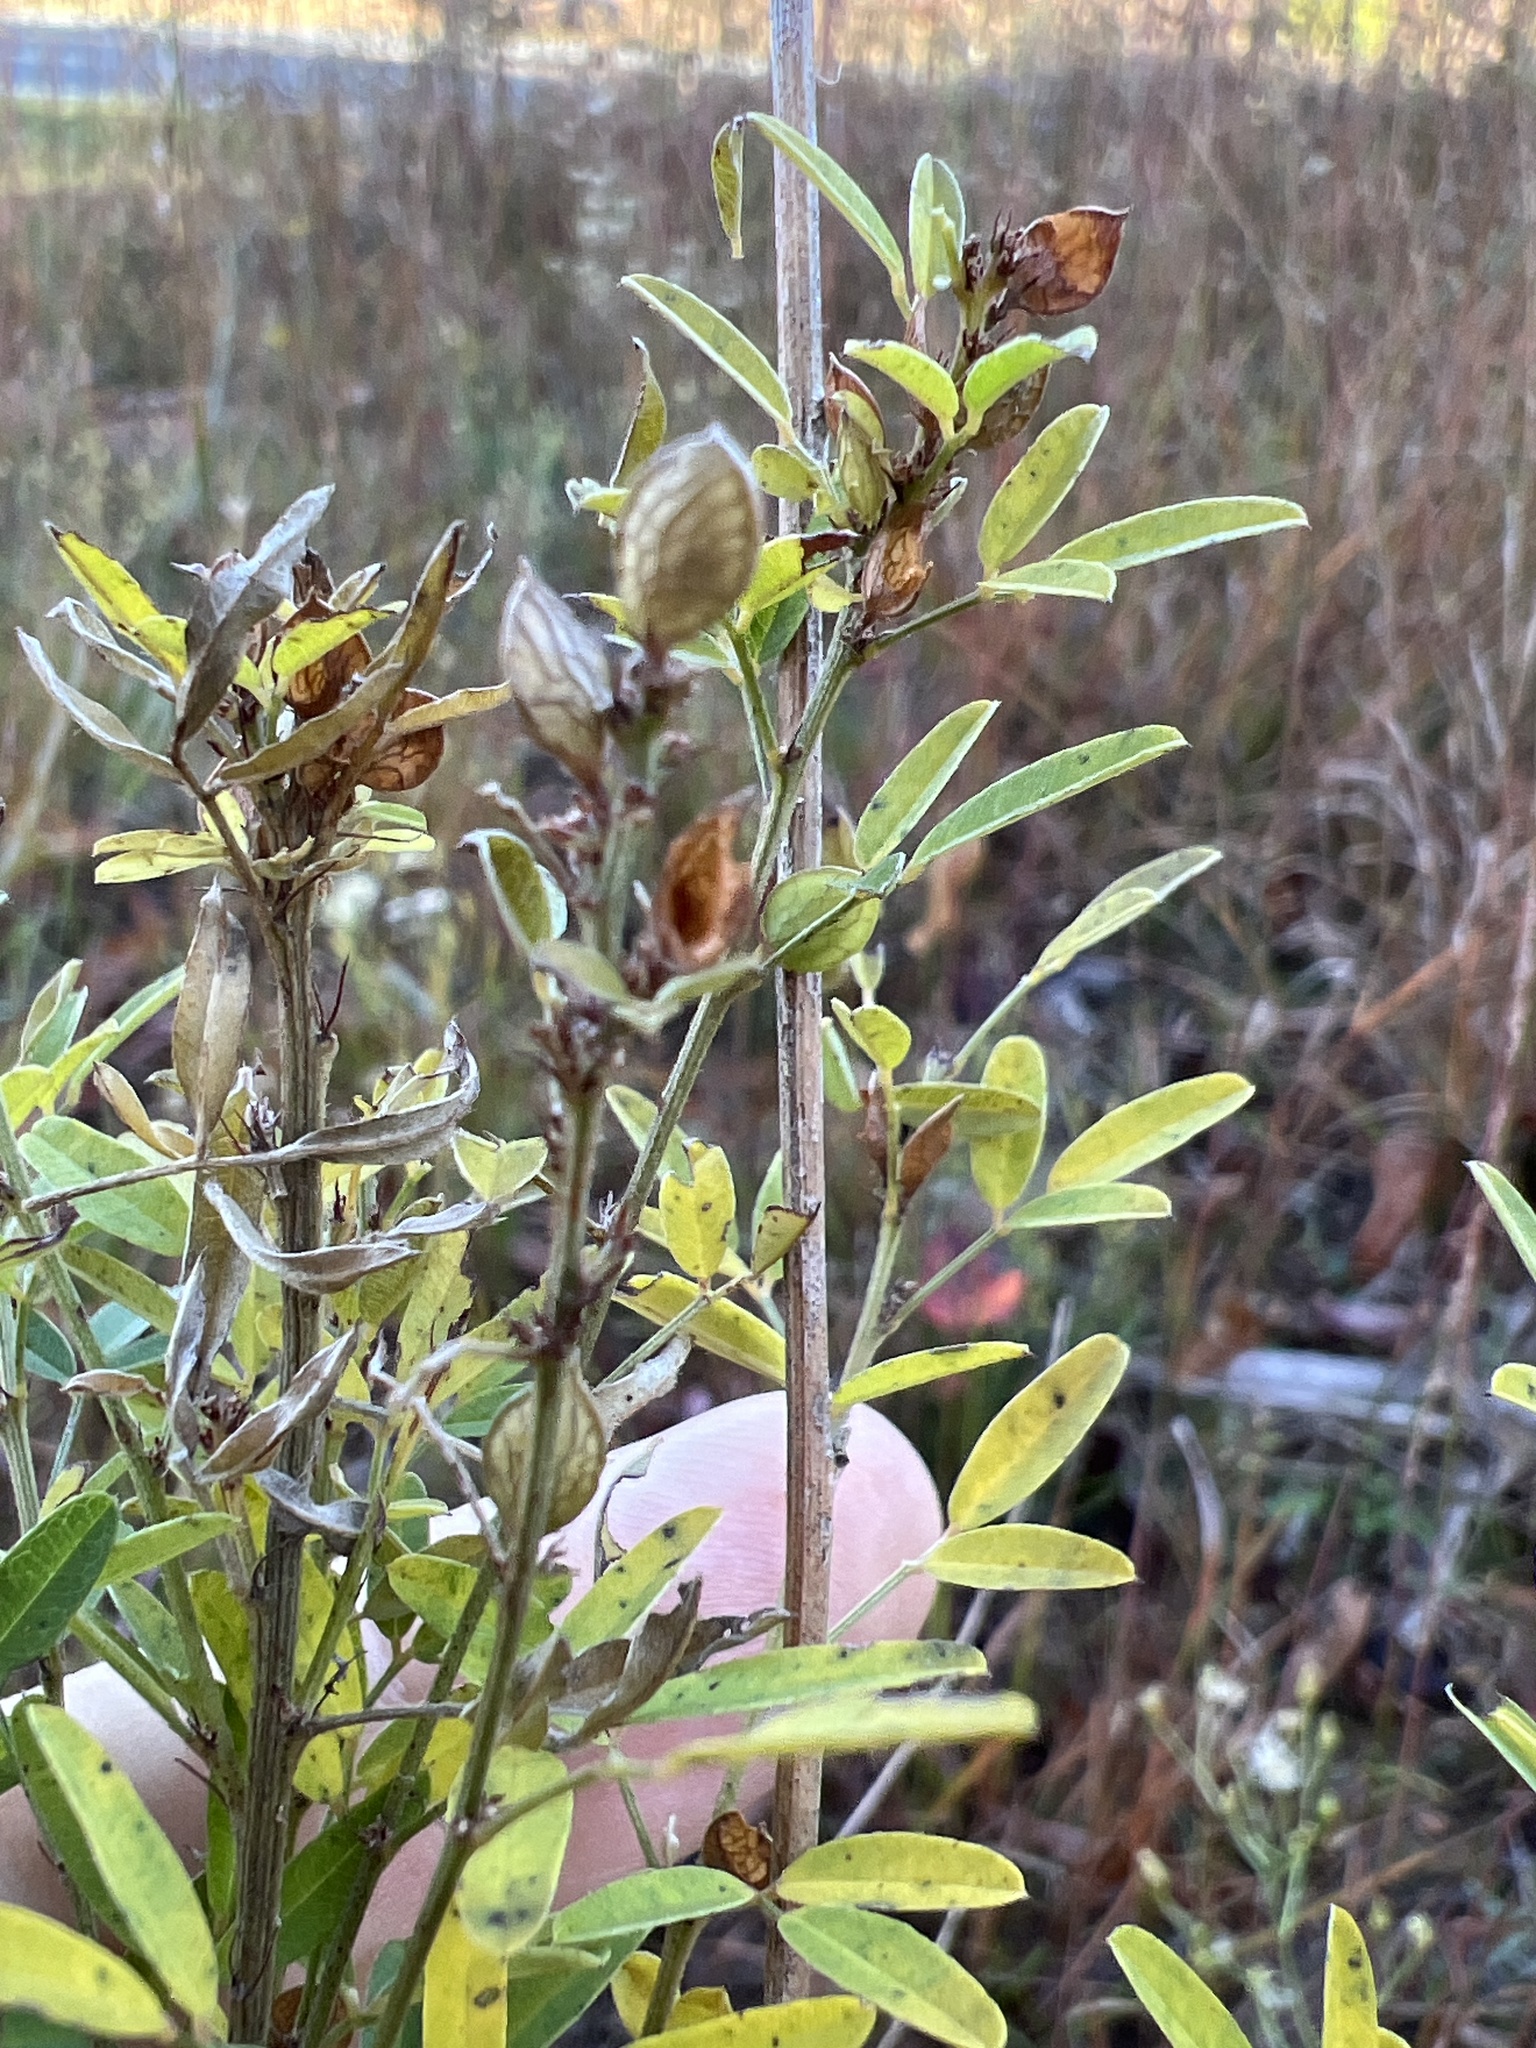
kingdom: Plantae
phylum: Tracheophyta
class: Magnoliopsida
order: Fabales
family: Fabaceae
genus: Lespedeza
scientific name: Lespedeza virginica
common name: Slender bush-clover
